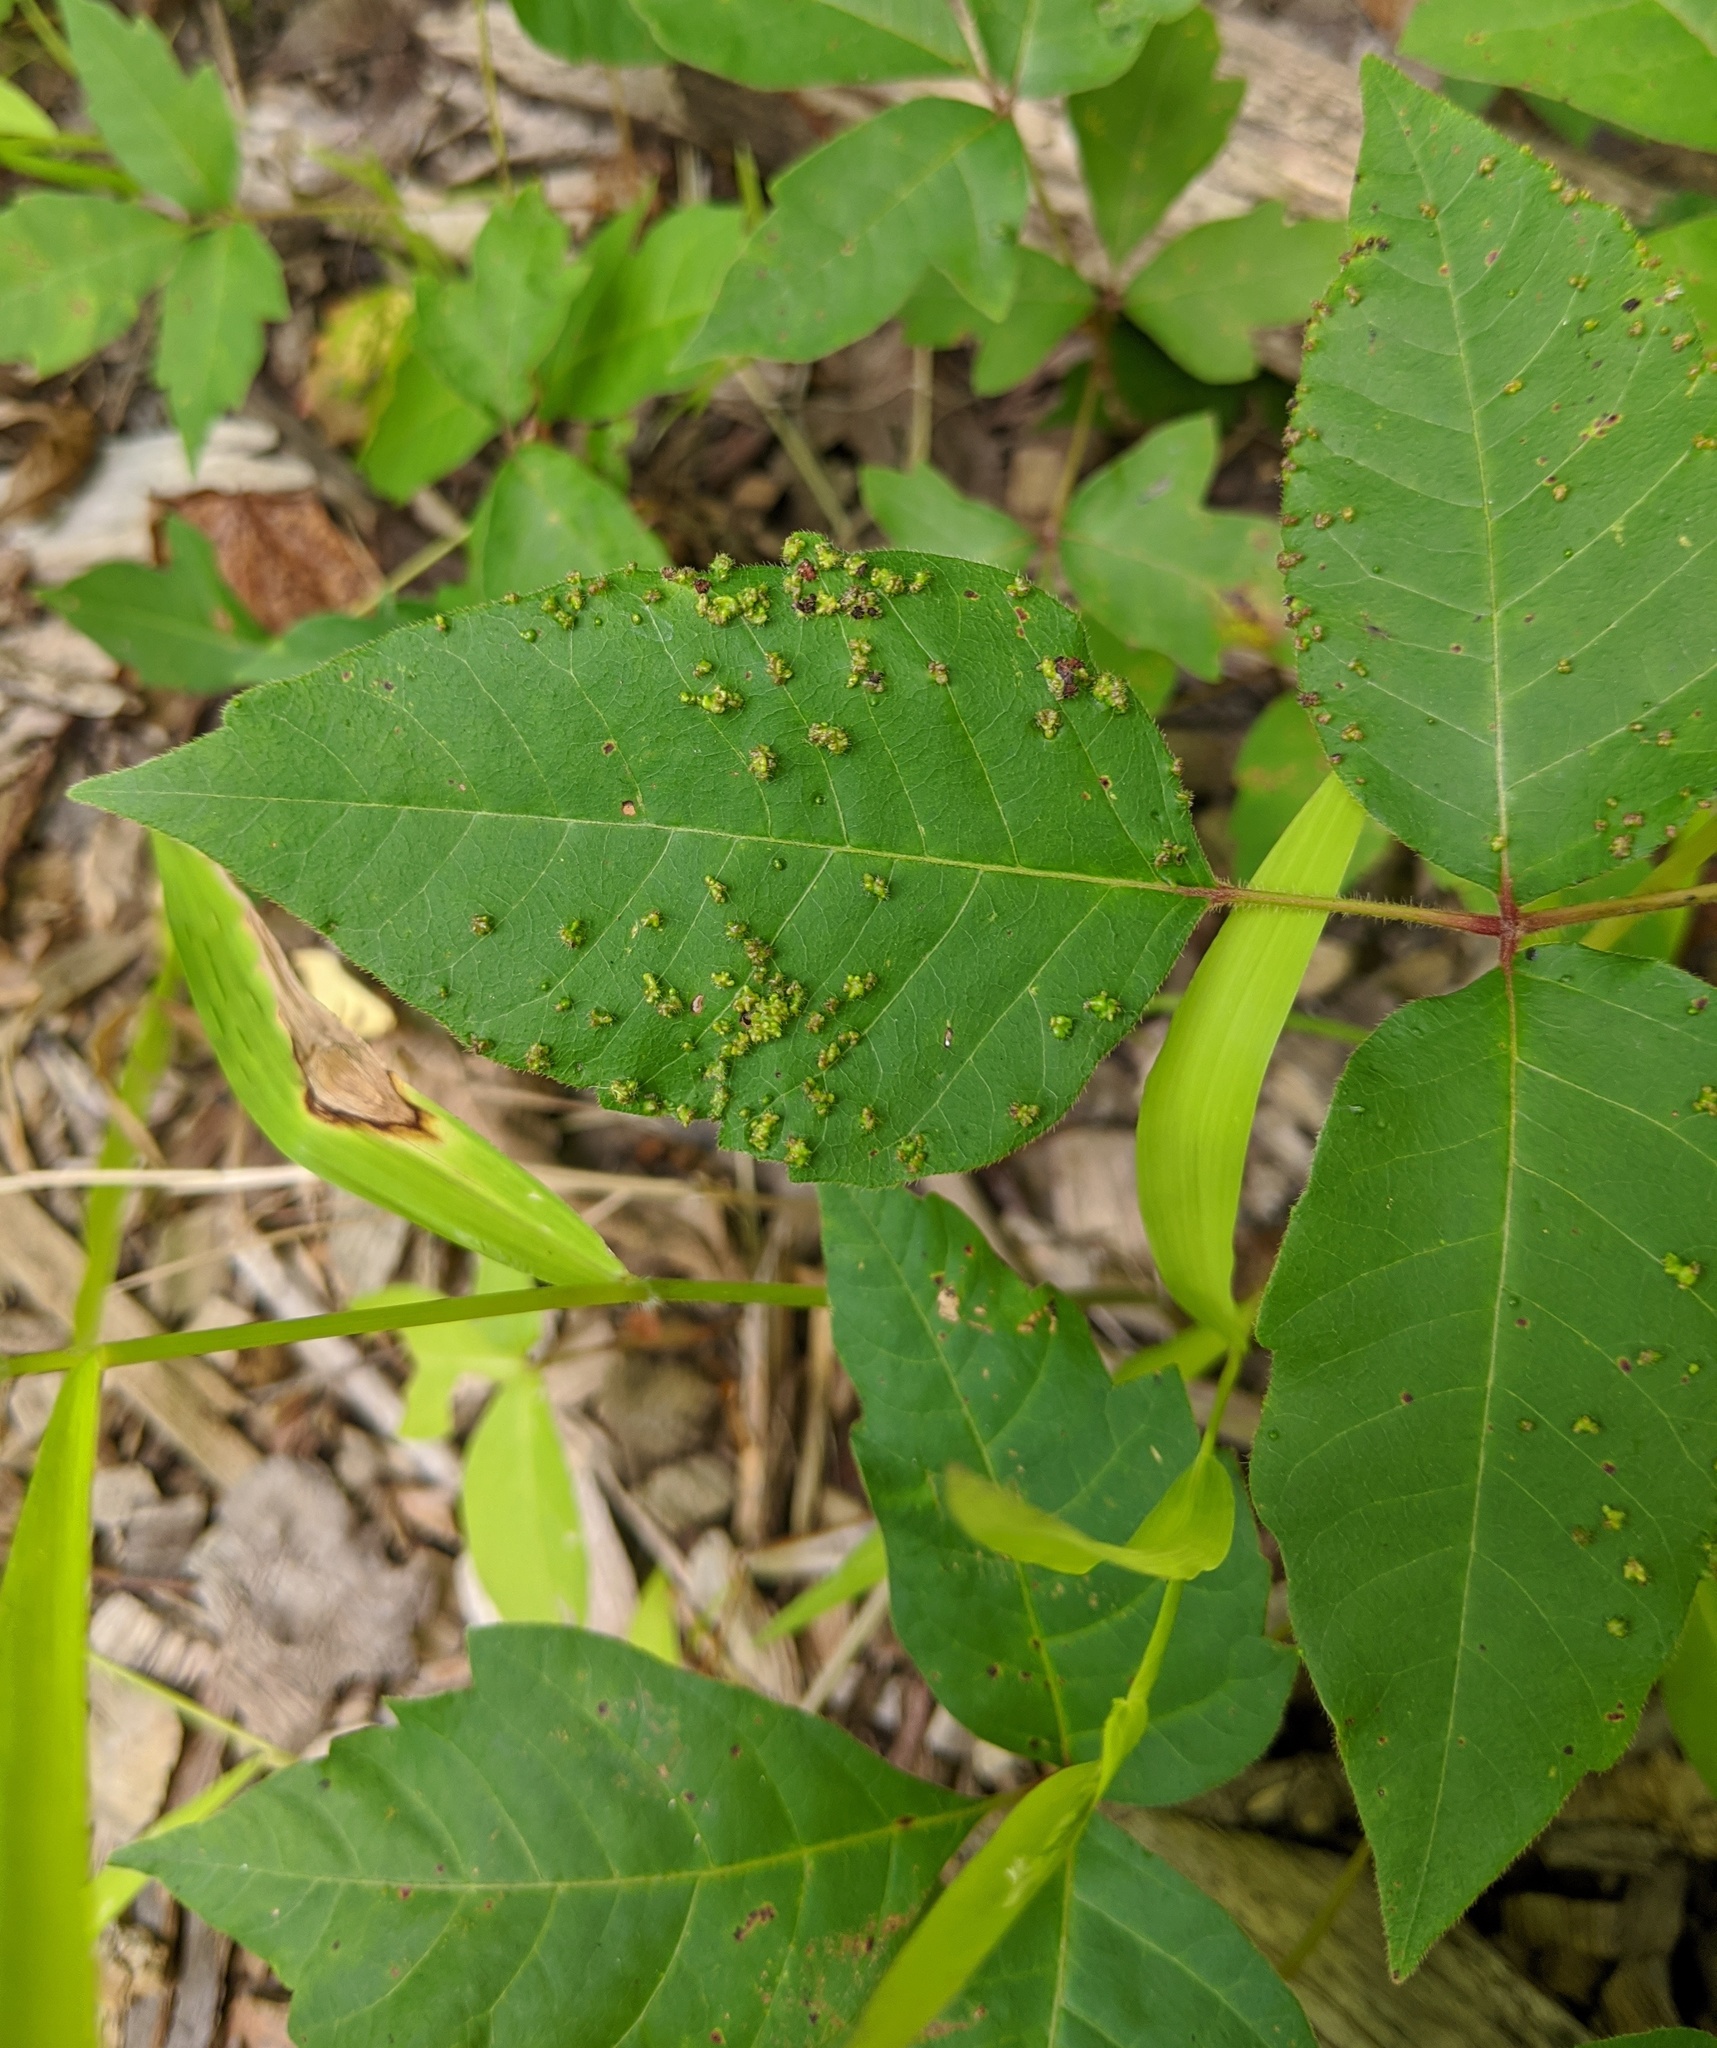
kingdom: Animalia
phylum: Arthropoda
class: Arachnida
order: Trombidiformes
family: Eriophyidae
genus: Aculops
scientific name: Aculops
